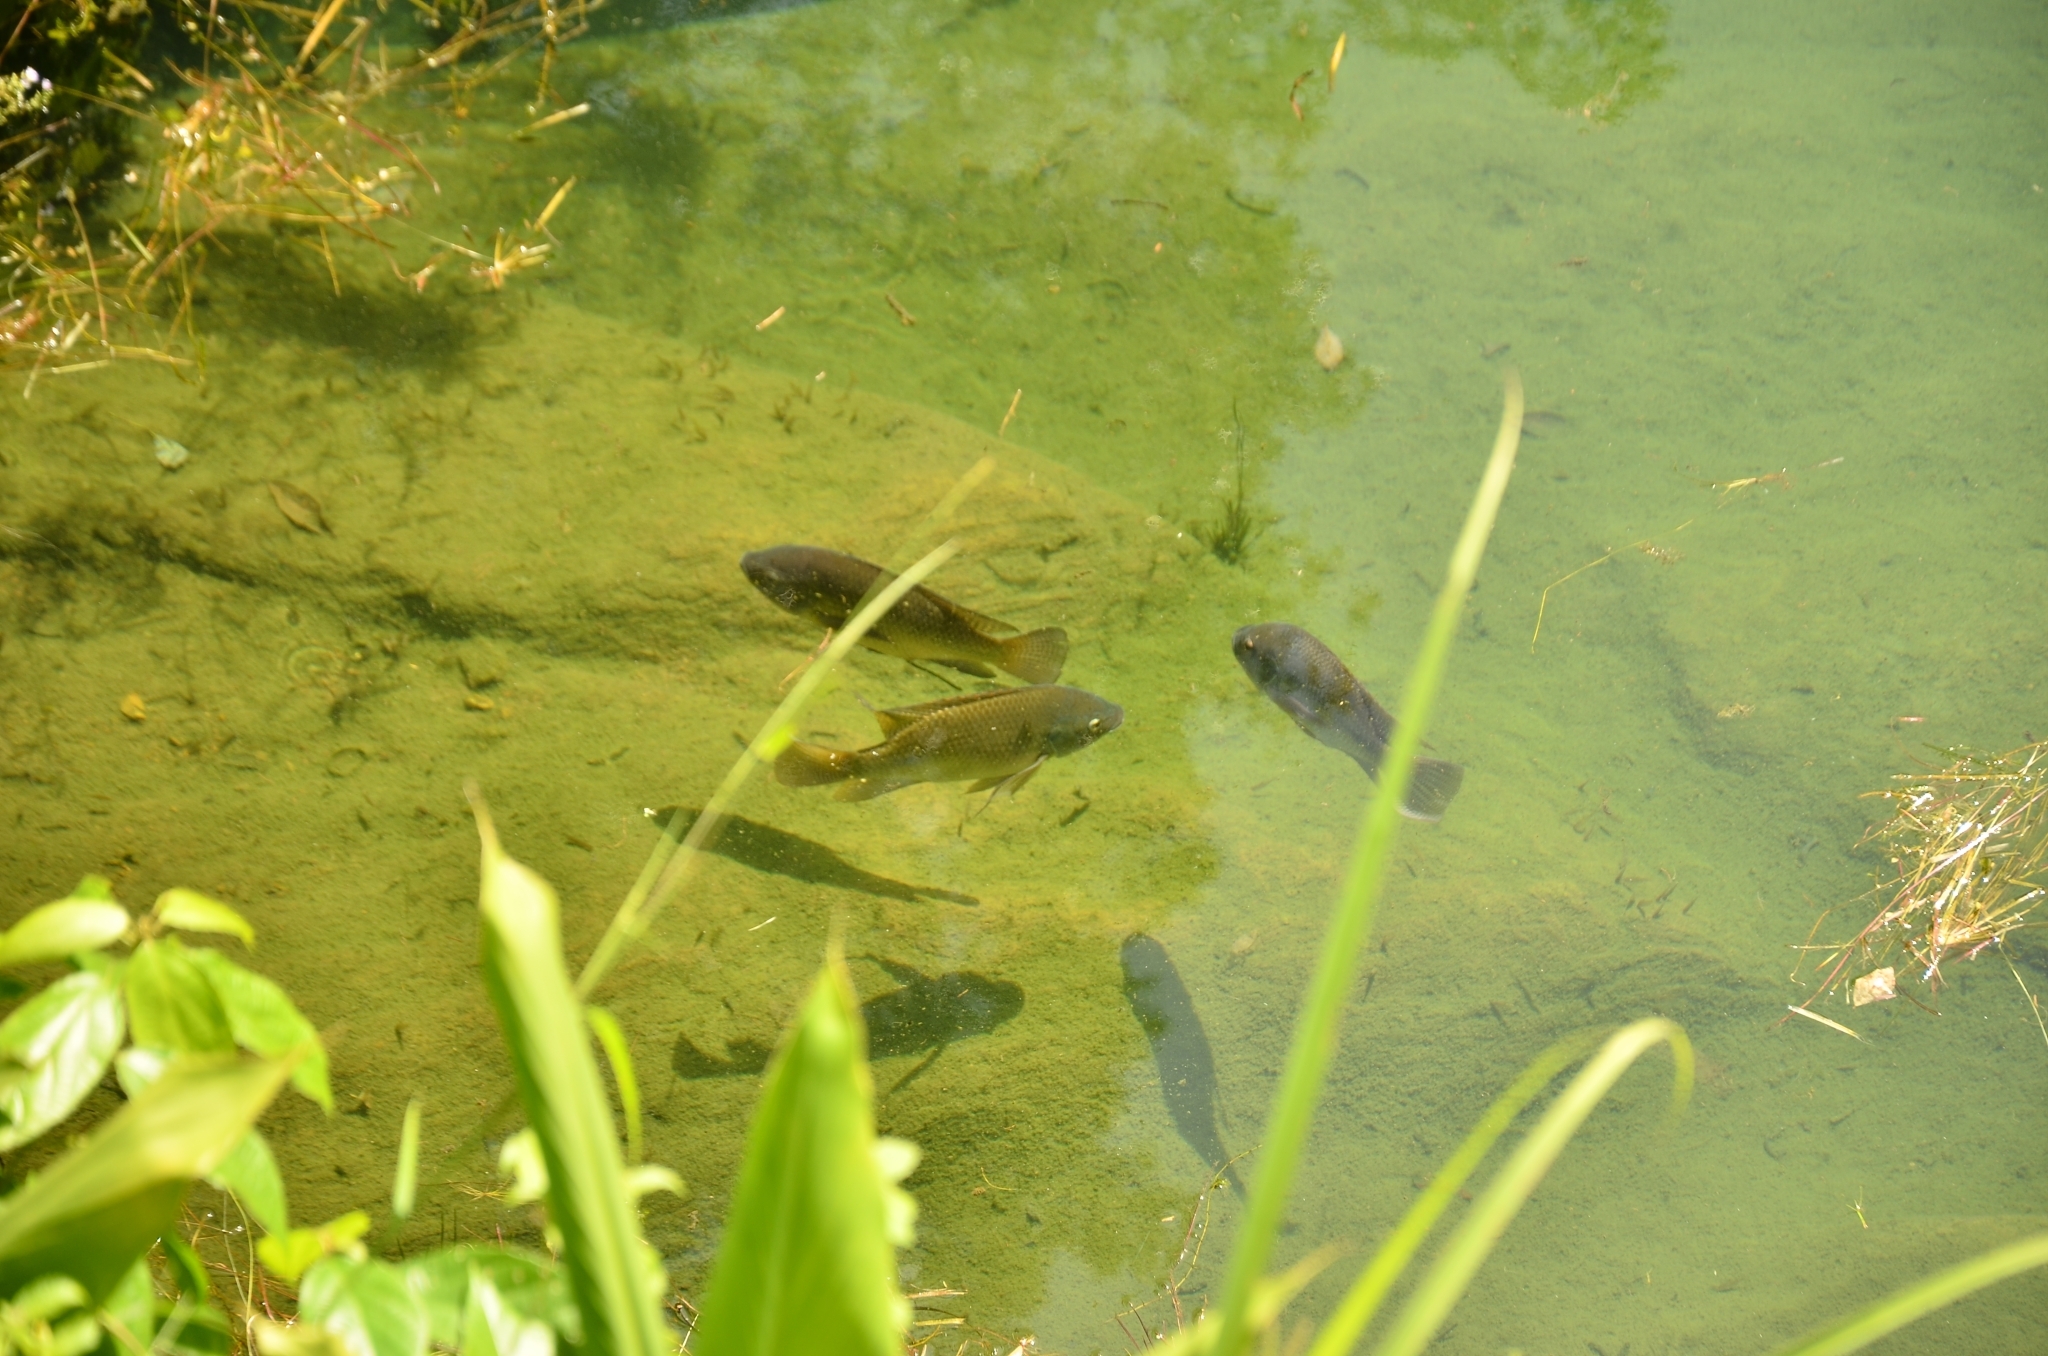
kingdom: Animalia
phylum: Chordata
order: Perciformes
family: Cichlidae
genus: Oreochromis
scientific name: Oreochromis niloticus
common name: Nile tilapia
